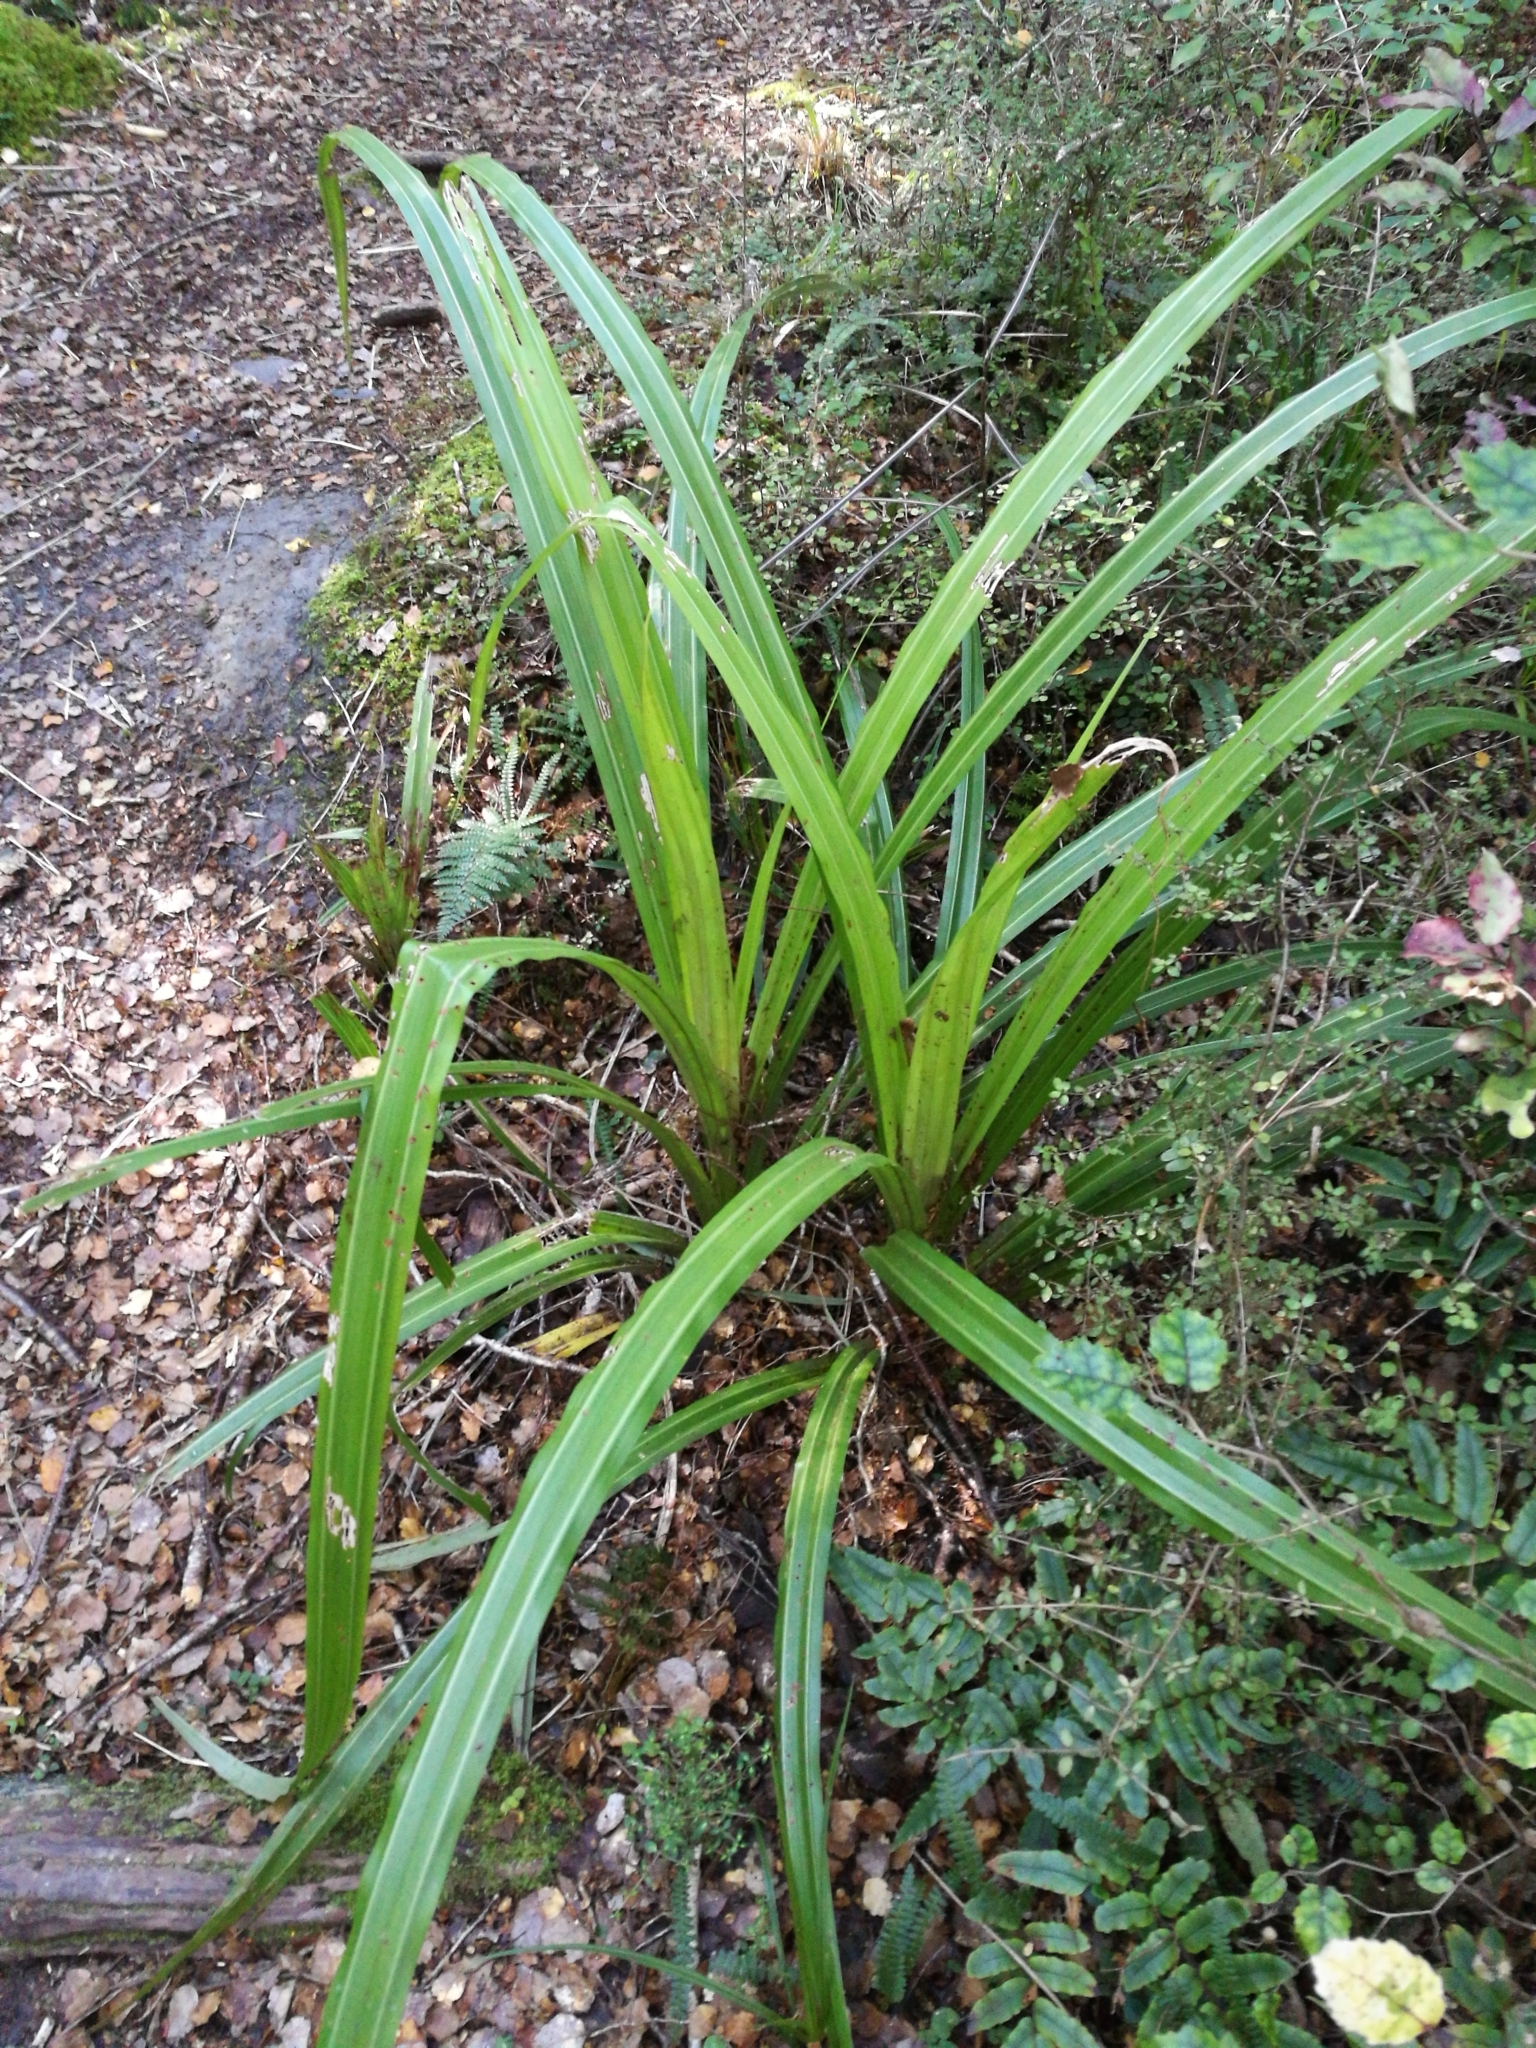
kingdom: Plantae
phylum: Tracheophyta
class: Liliopsida
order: Asparagales
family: Asteliaceae
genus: Astelia
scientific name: Astelia fragrans
